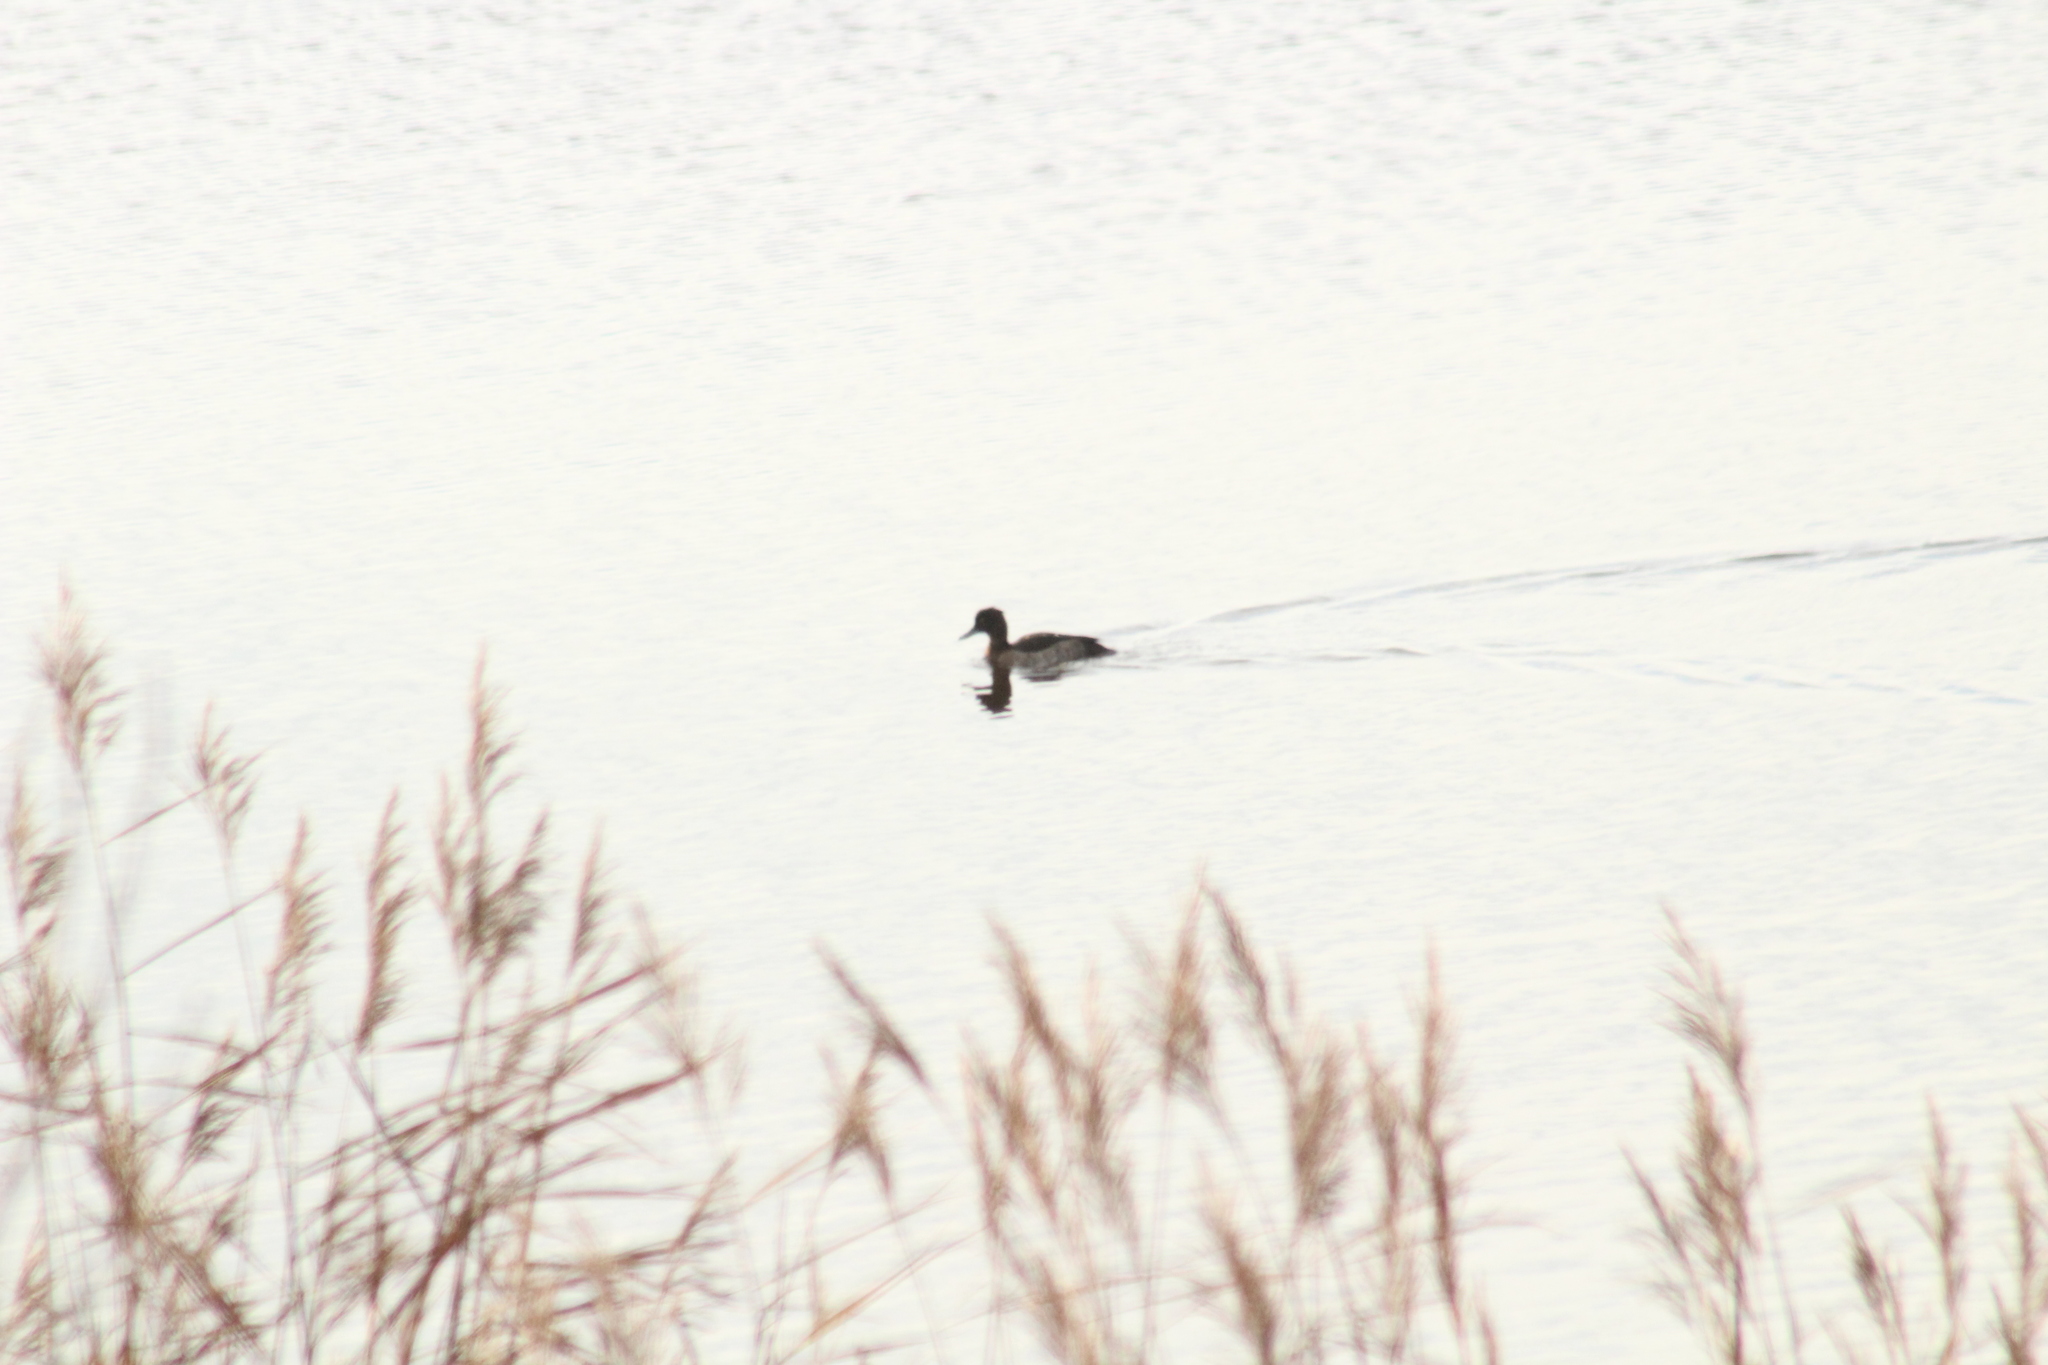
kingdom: Animalia
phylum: Chordata
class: Aves
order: Anseriformes
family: Anatidae
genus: Aythya
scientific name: Aythya fuligula
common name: Tufted duck
